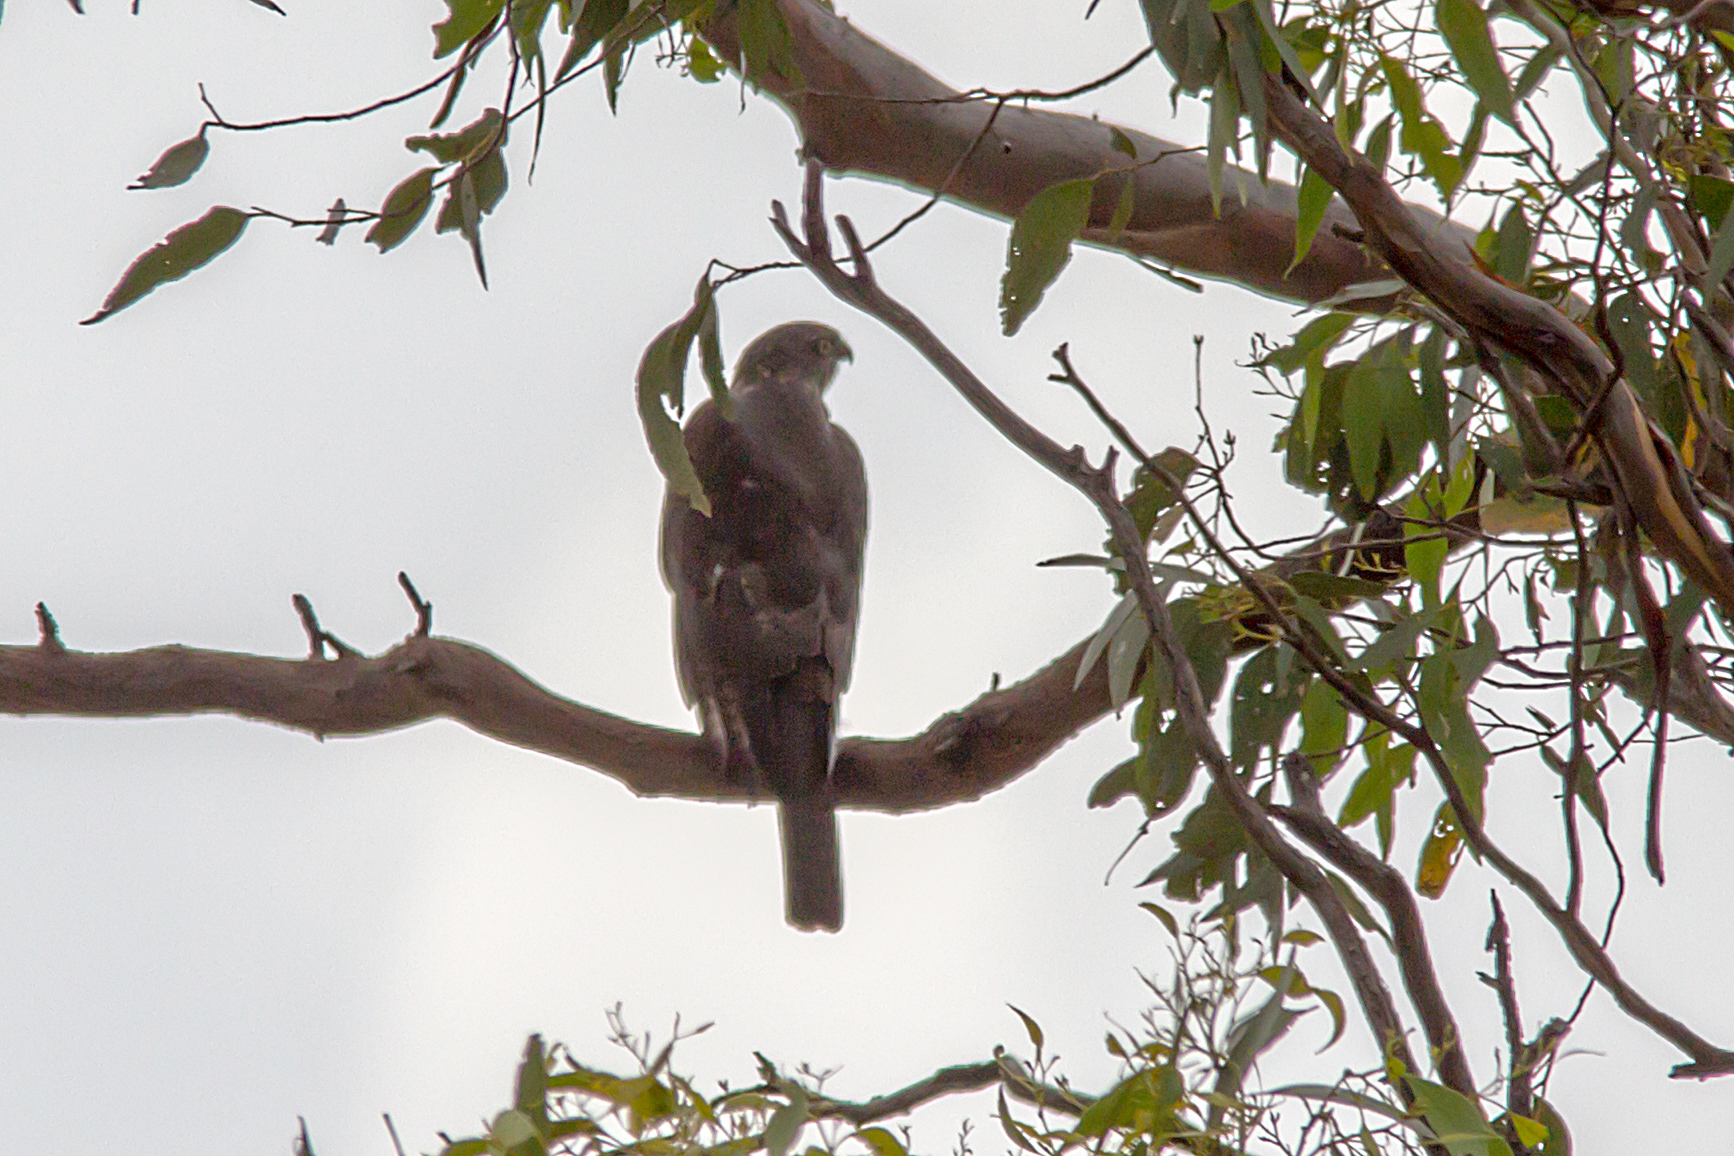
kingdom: Animalia
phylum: Chordata
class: Aves
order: Accipitriformes
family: Accipitridae
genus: Accipiter
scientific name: Accipiter cirrocephalus
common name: Collared sparrowhawk
